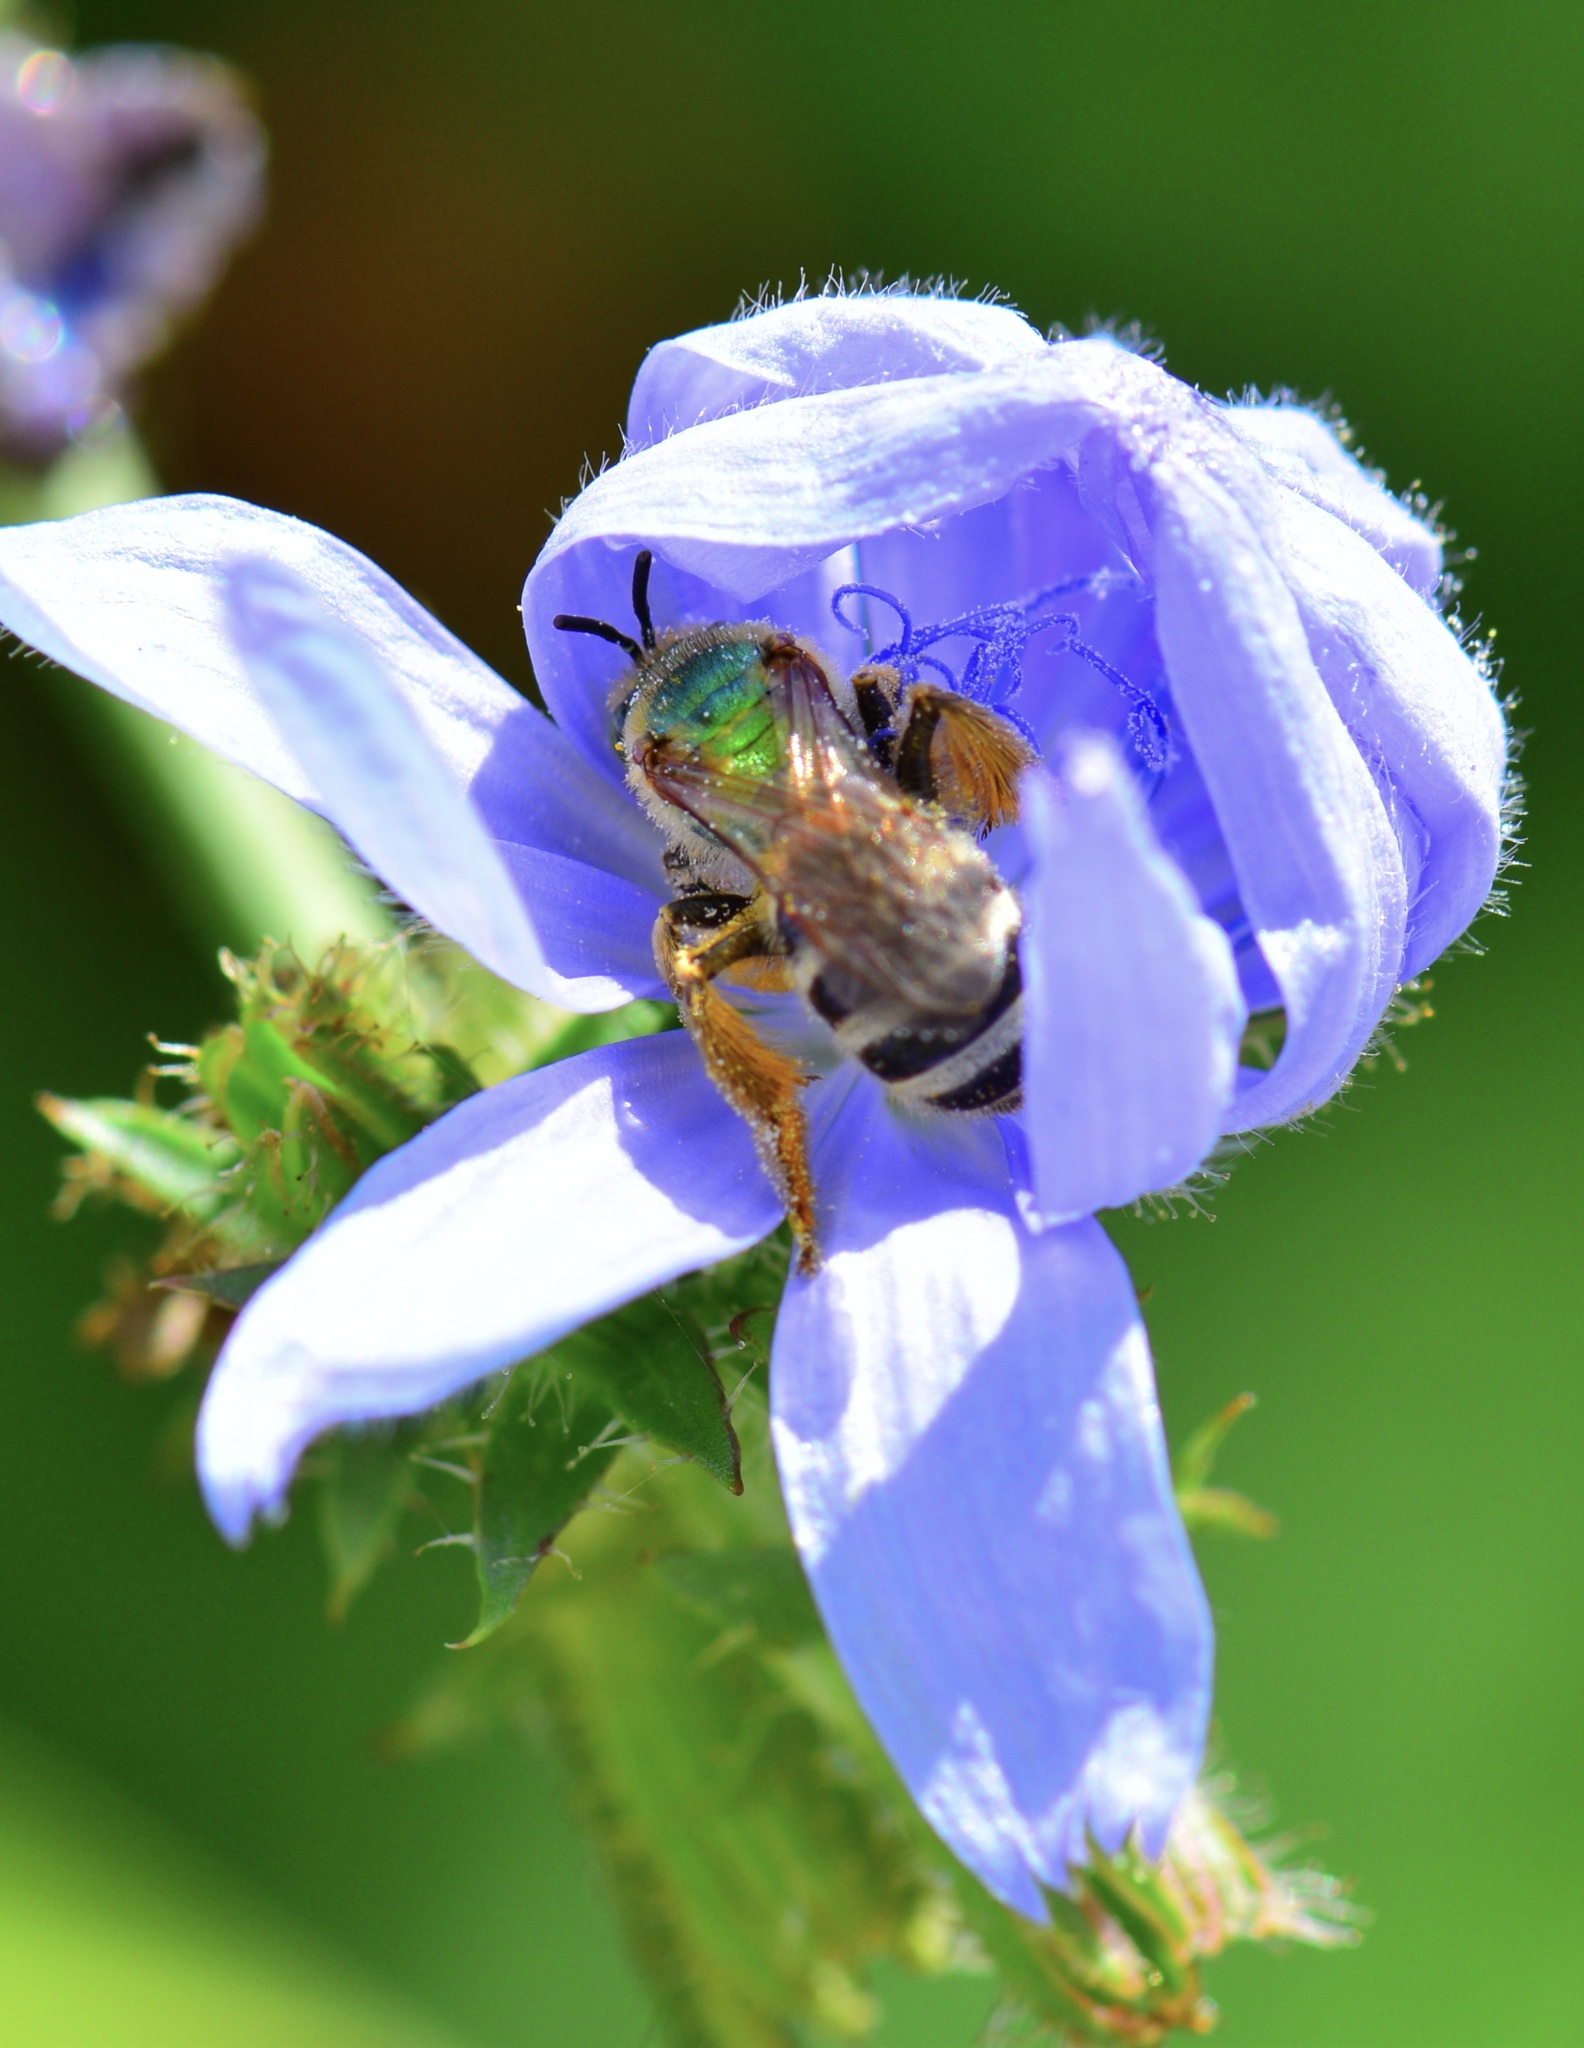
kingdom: Animalia
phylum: Arthropoda
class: Insecta
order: Hymenoptera
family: Halictidae
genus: Agapostemon
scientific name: Agapostemon virescens
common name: Bicolored striped sweat bee
